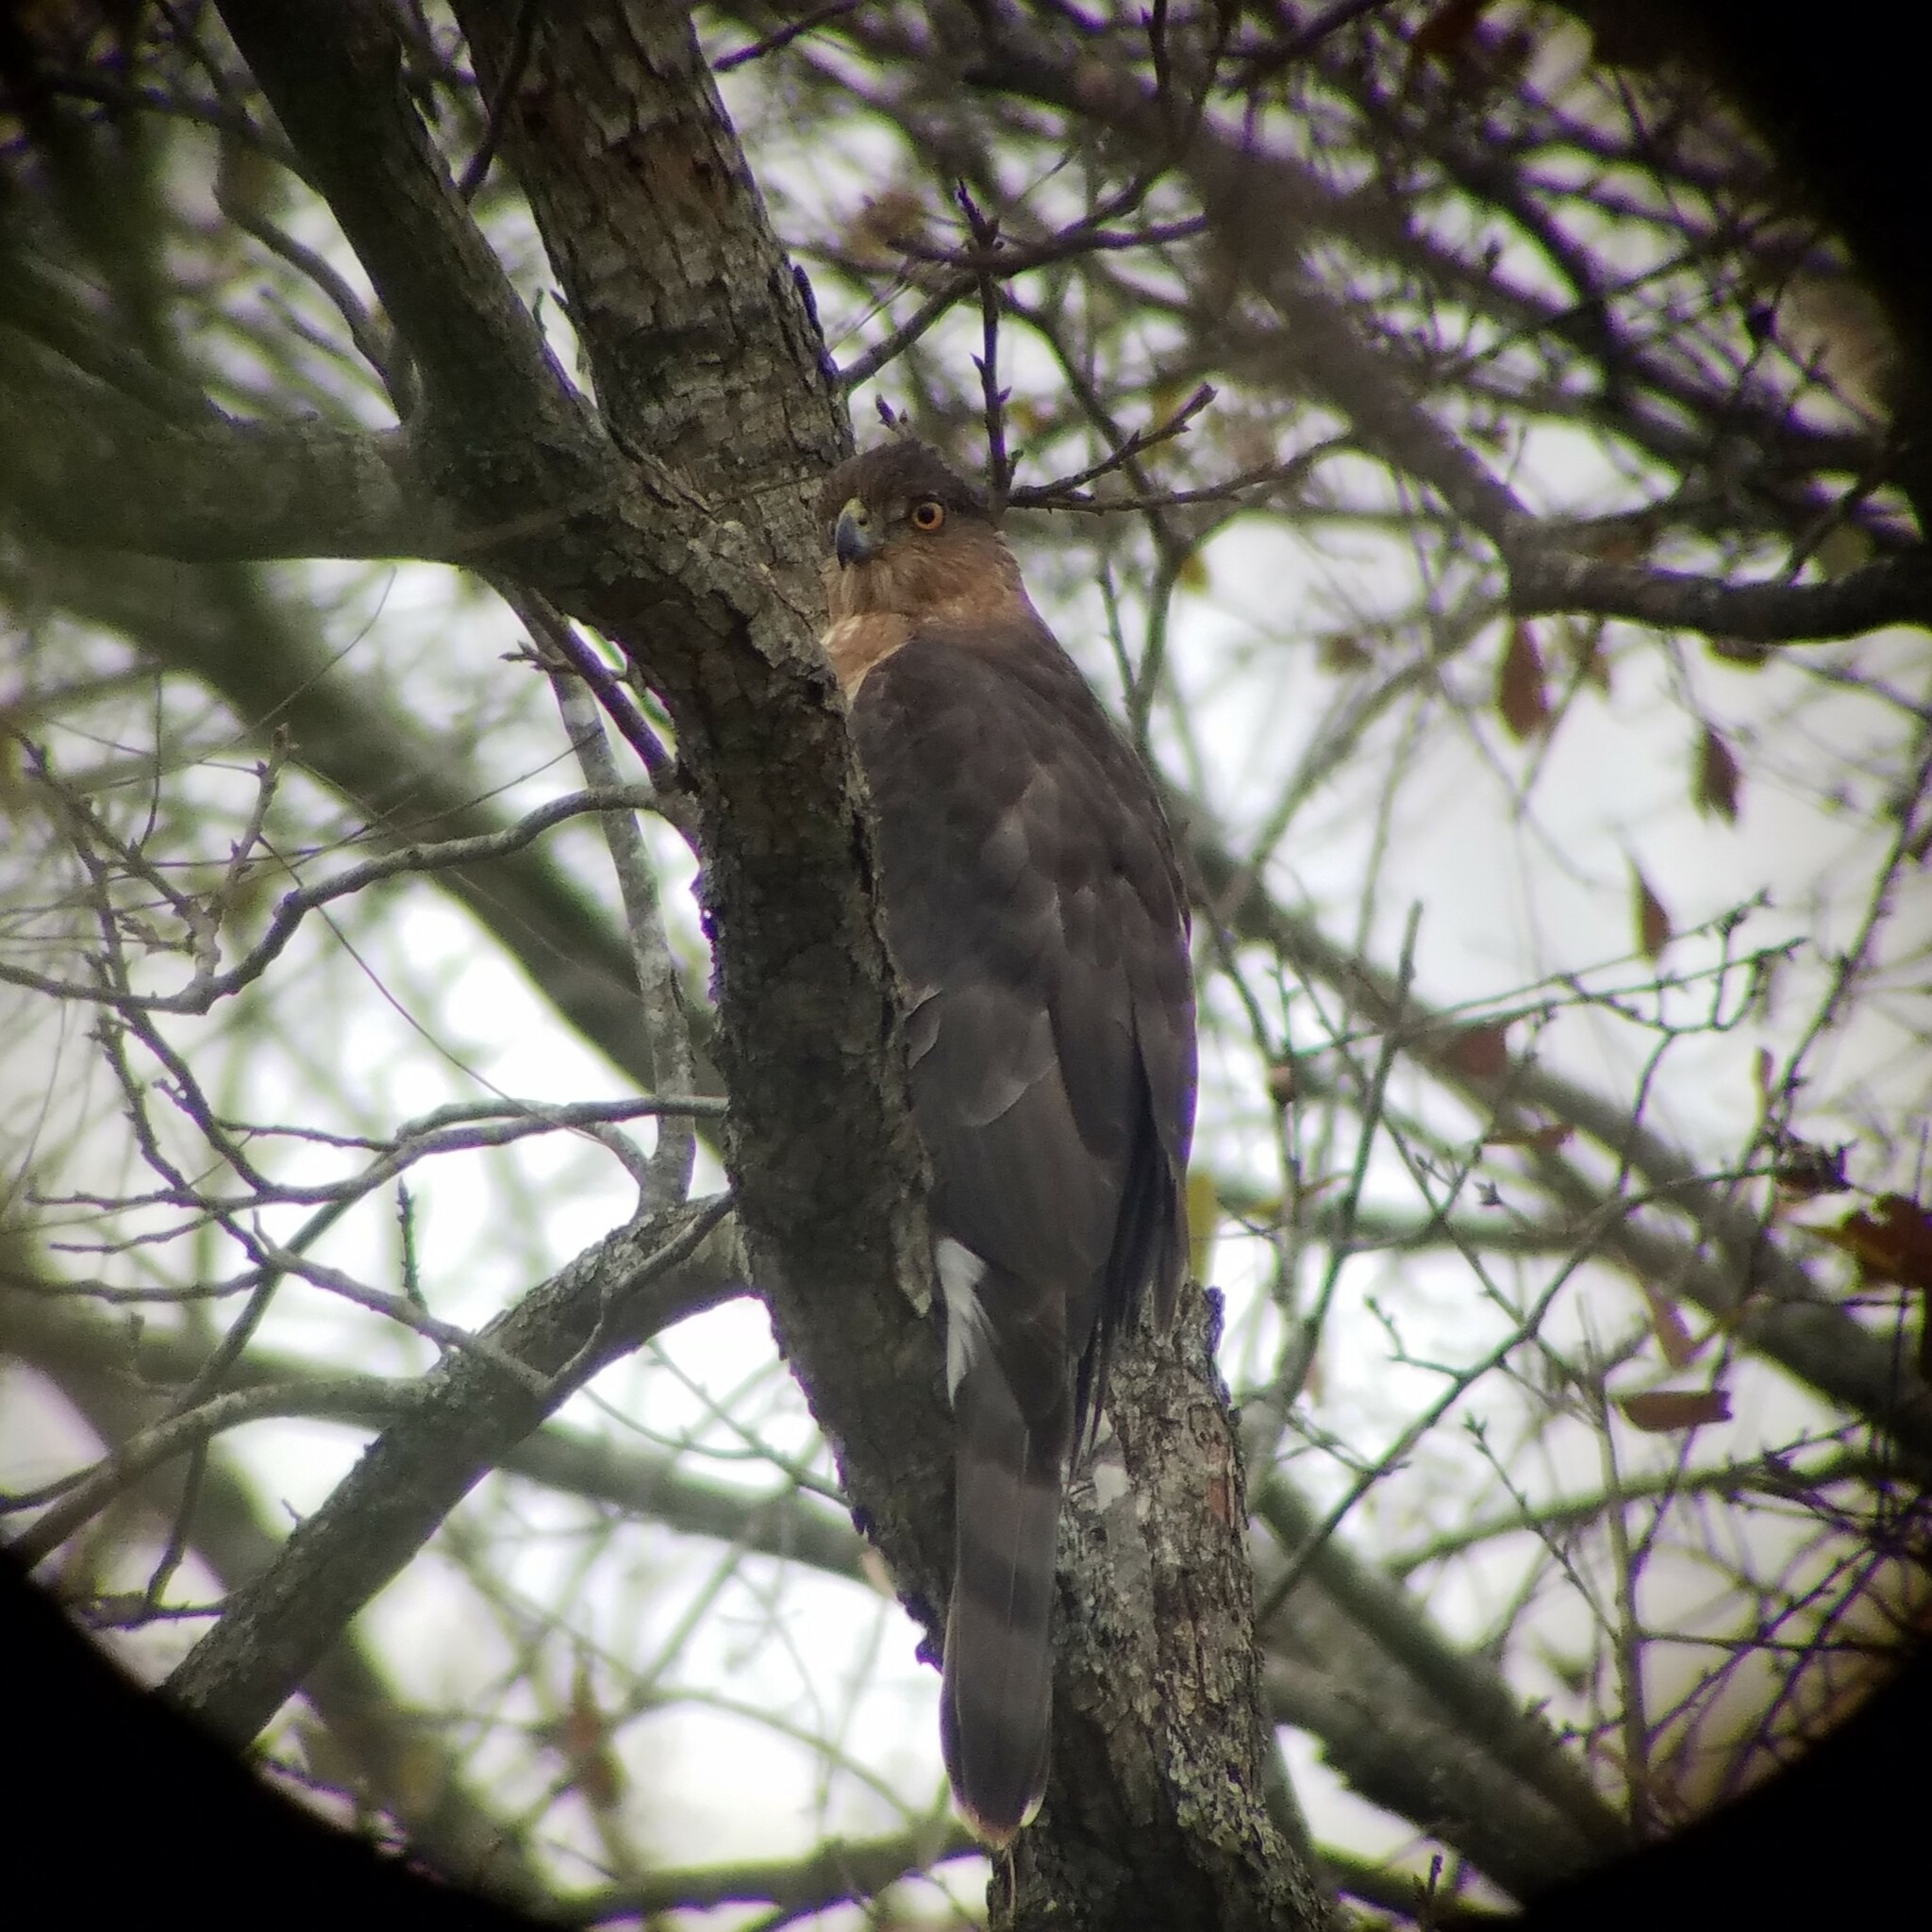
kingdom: Animalia
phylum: Chordata
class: Aves
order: Accipitriformes
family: Accipitridae
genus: Accipiter
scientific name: Accipiter cooperii
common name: Cooper's hawk
